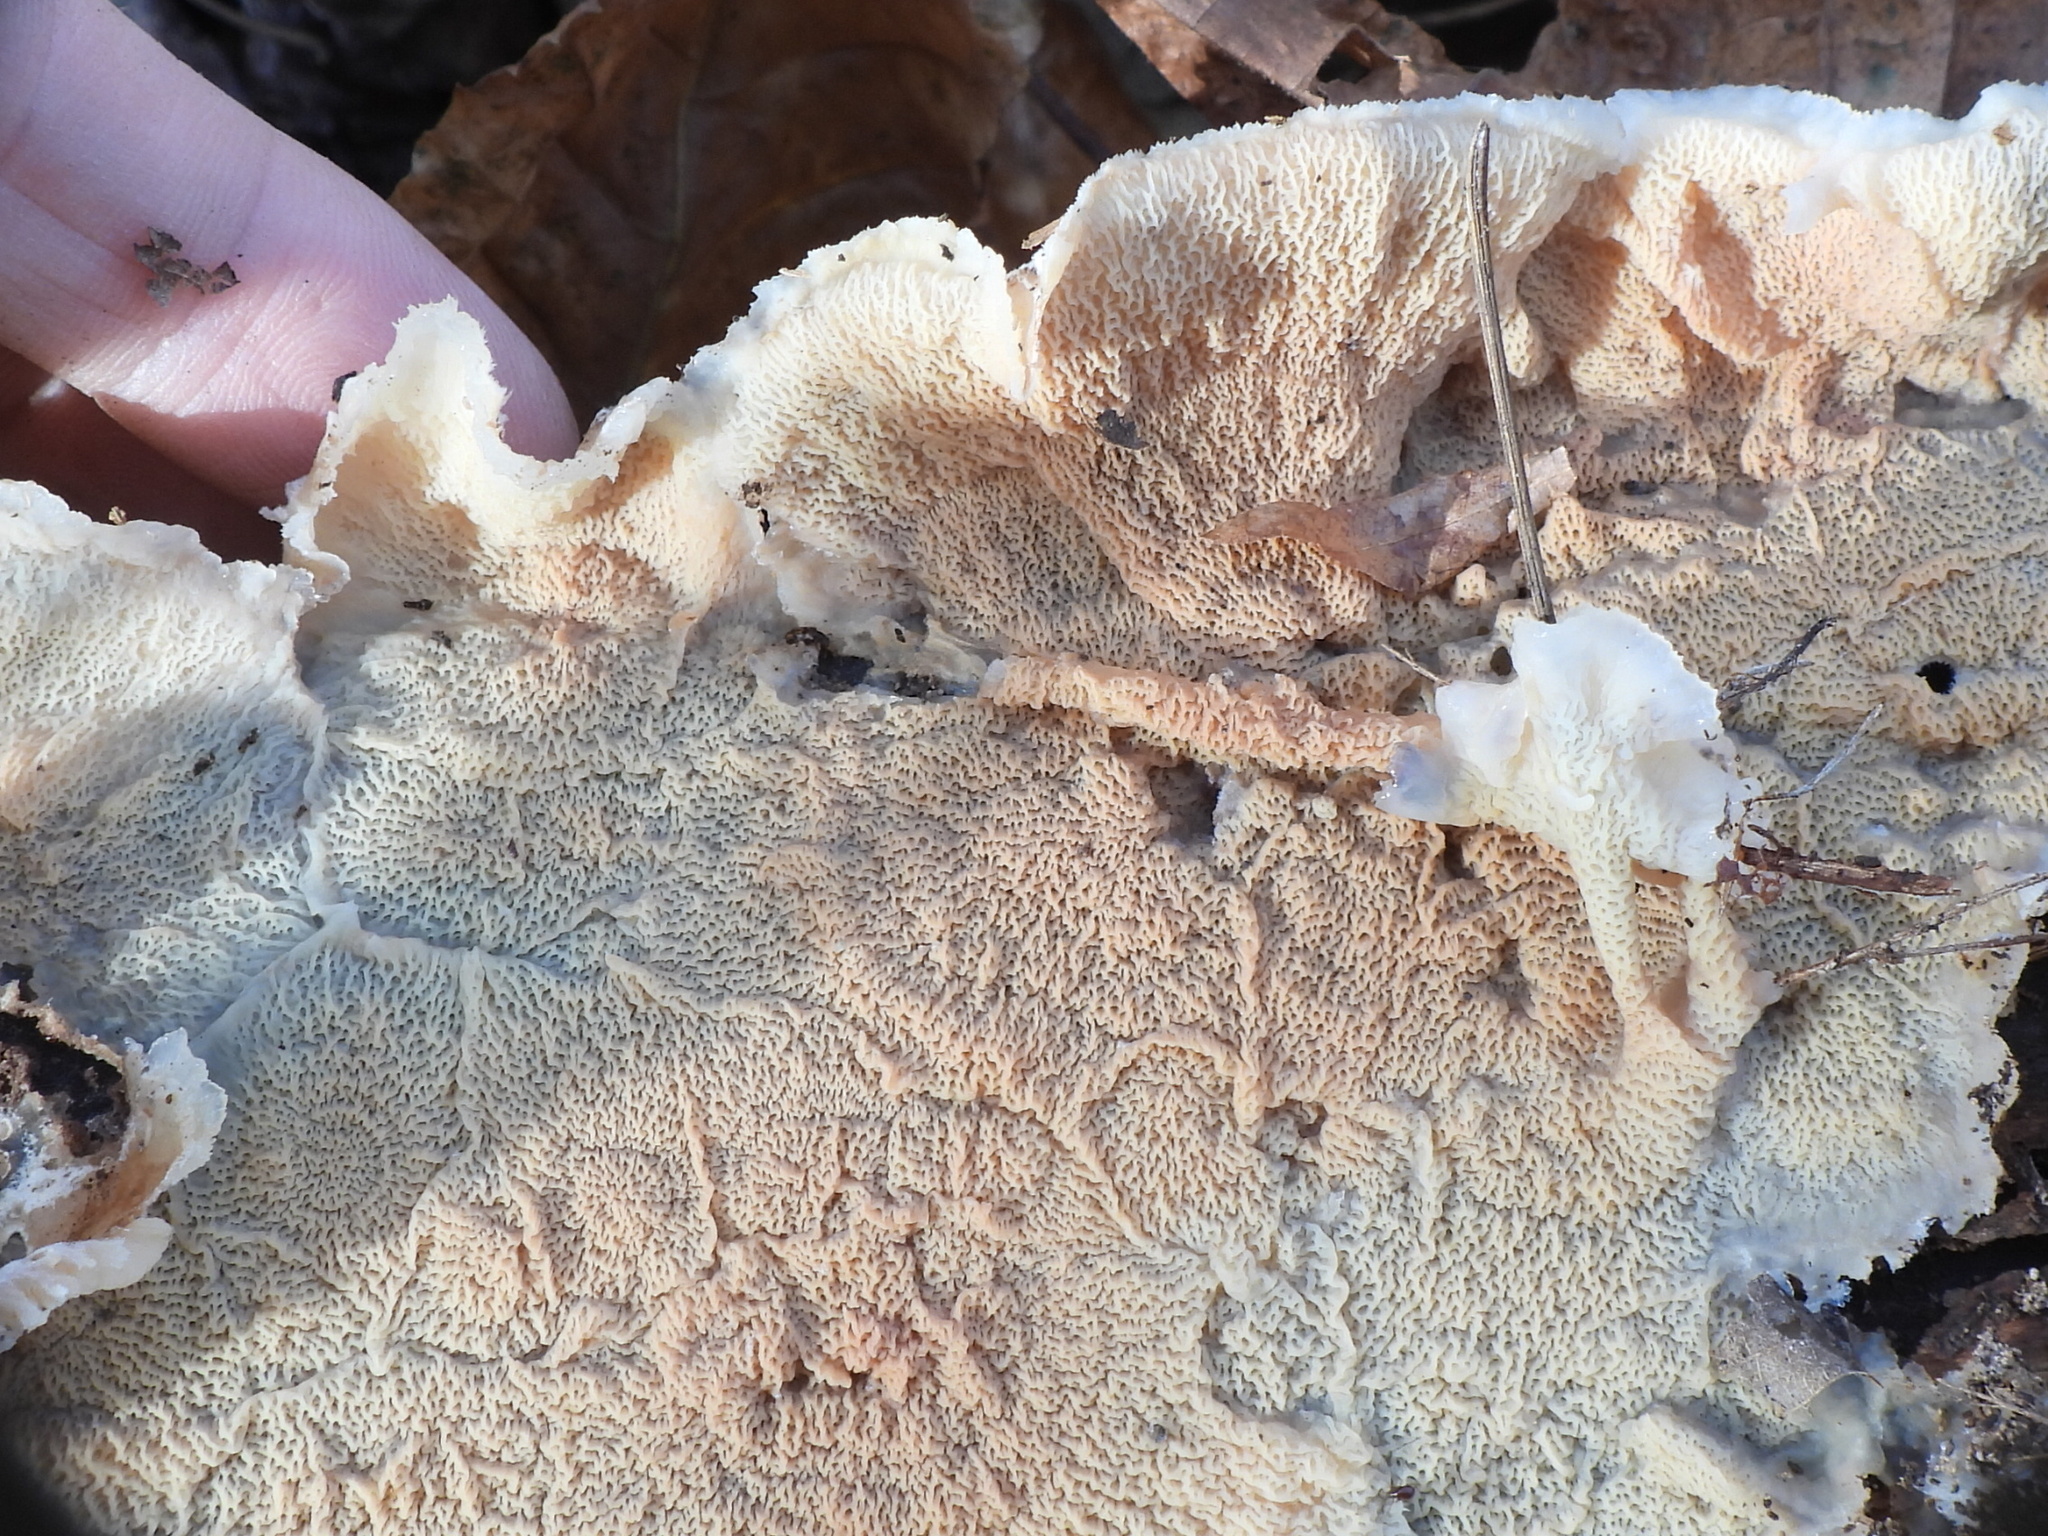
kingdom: Fungi
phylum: Basidiomycota
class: Agaricomycetes
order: Polyporales
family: Meruliaceae
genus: Phlebia
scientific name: Phlebia tremellosa
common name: Jelly rot
